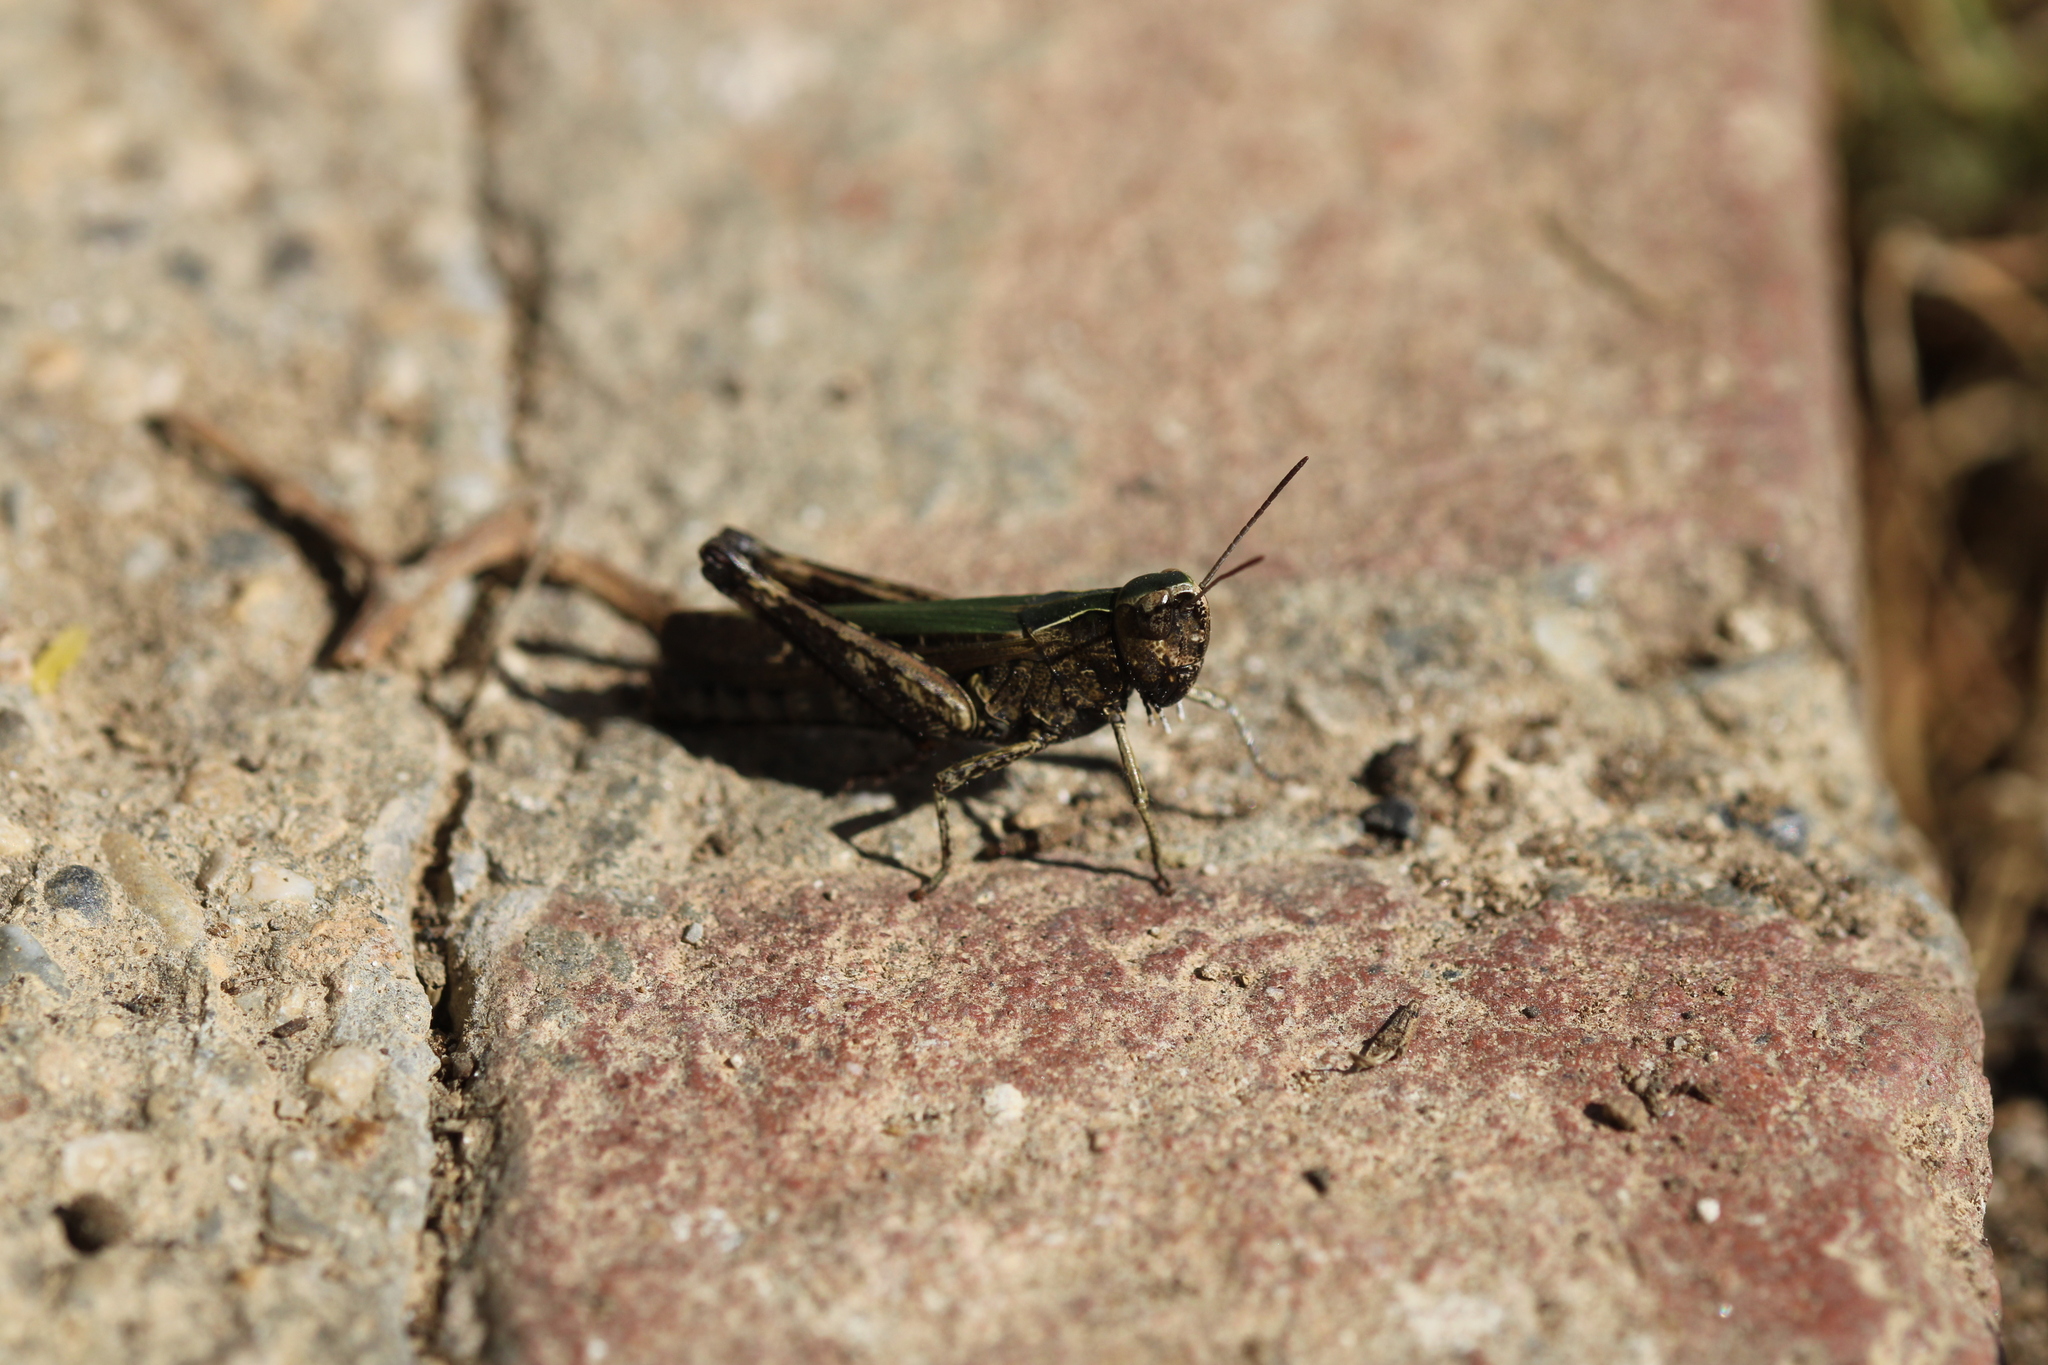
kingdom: Animalia
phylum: Arthropoda
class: Insecta
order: Orthoptera
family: Acrididae
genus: Omocestus
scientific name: Omocestus rufipes
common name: Woodland grasshopper
